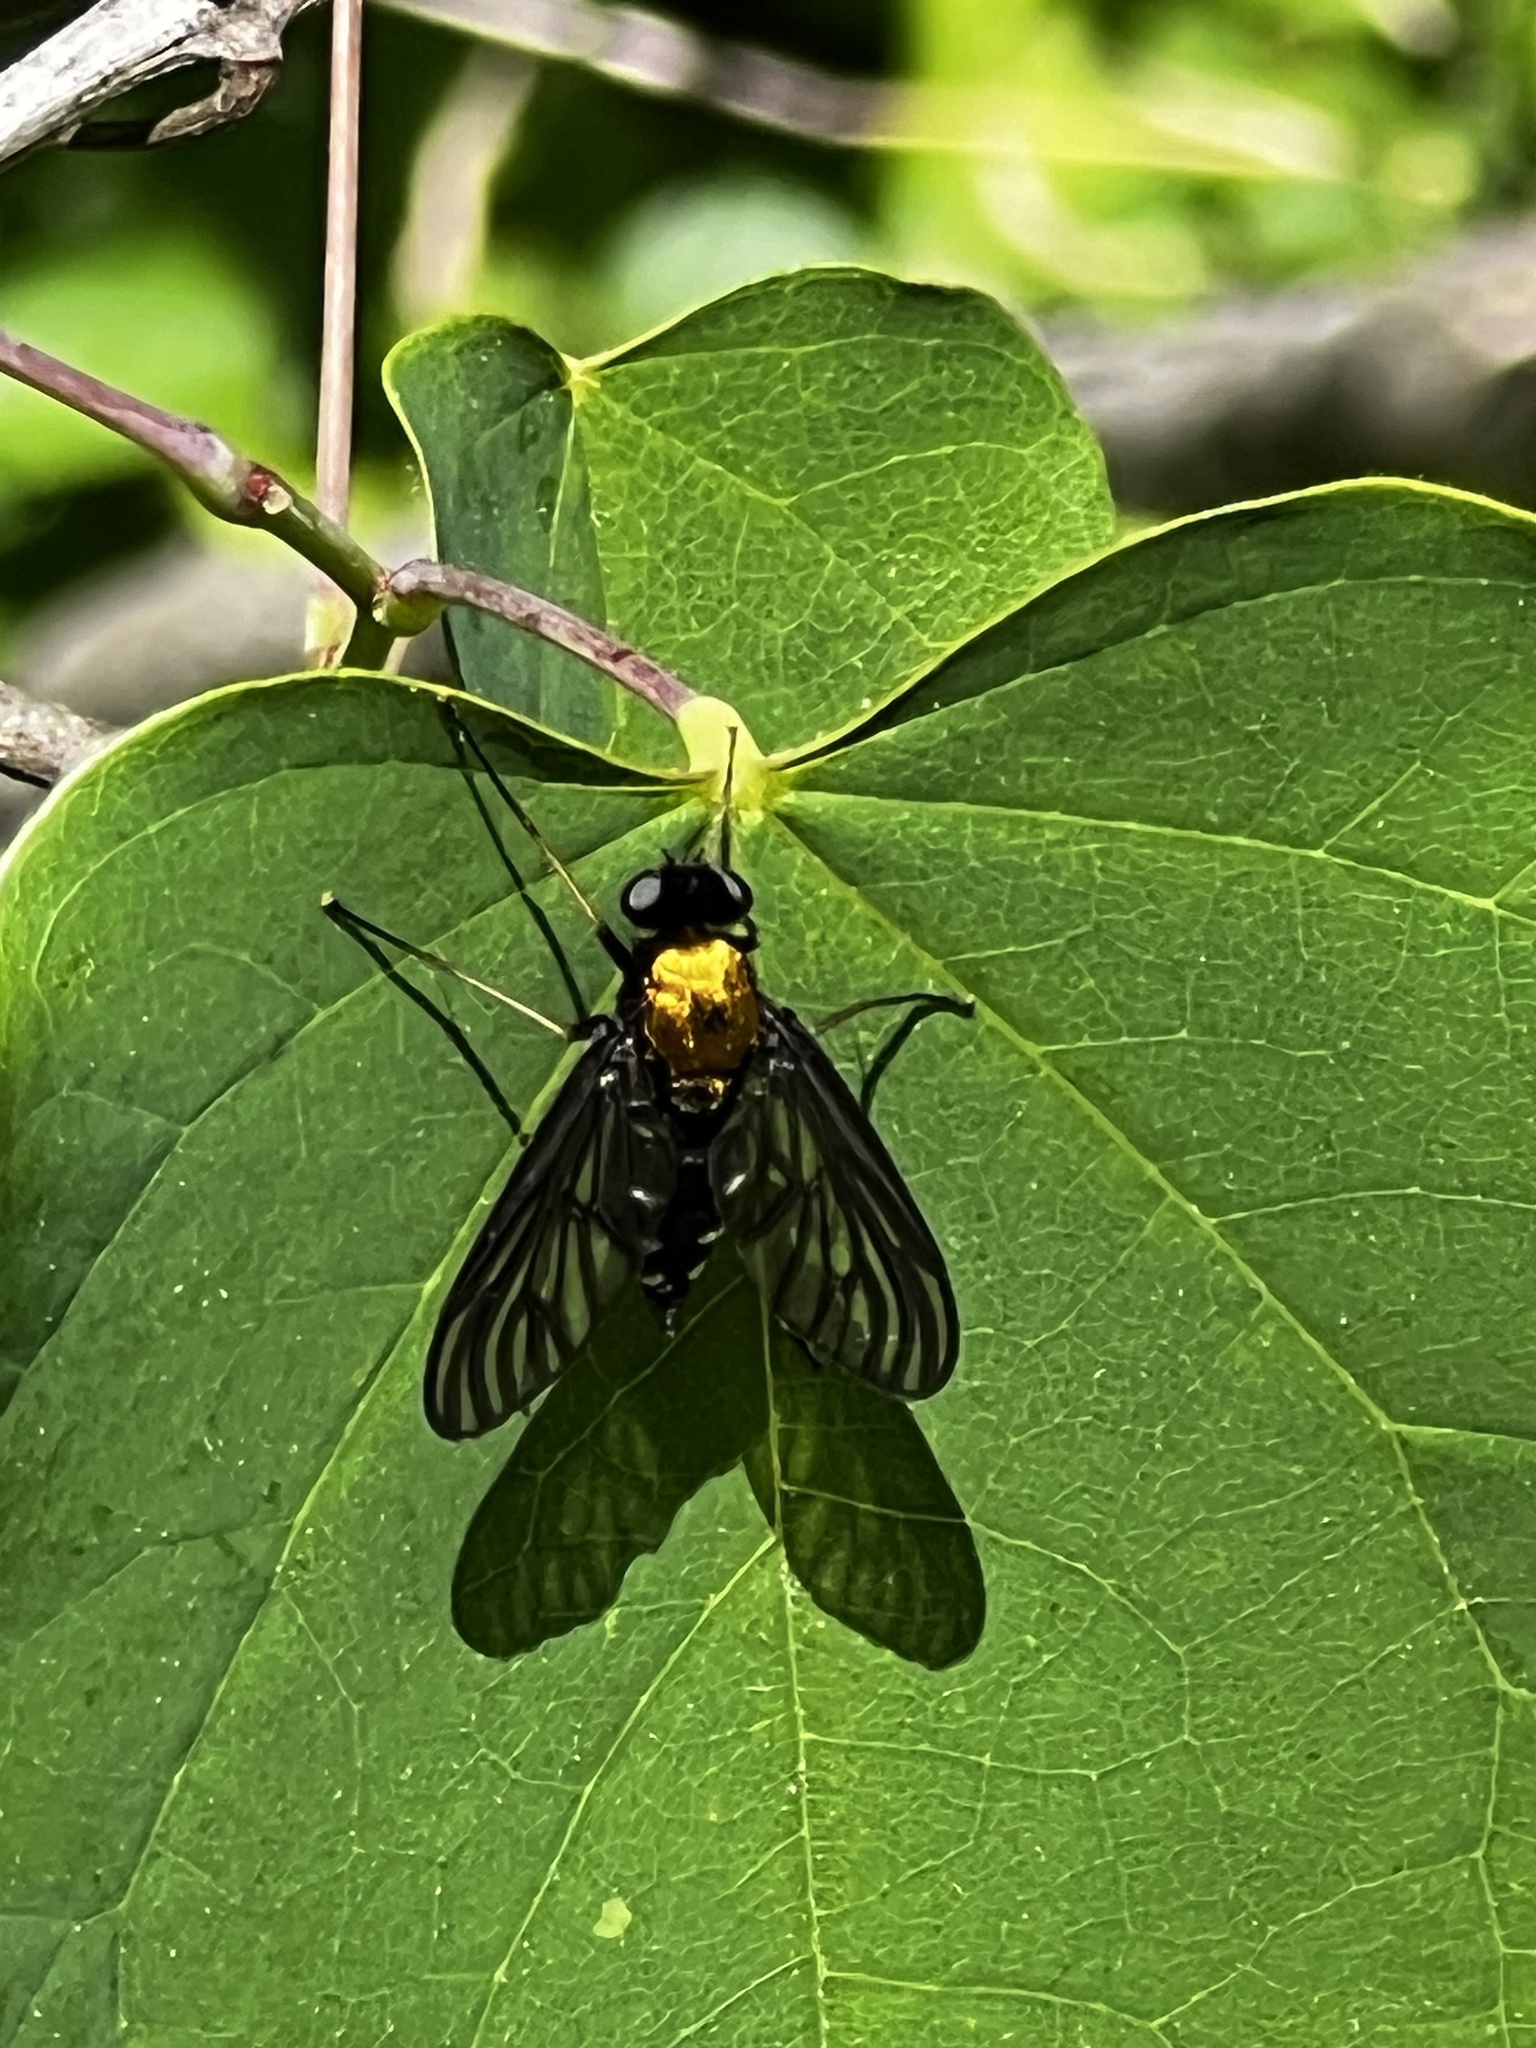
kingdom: Animalia
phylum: Arthropoda
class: Insecta
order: Diptera
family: Rhagionidae
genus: Chrysopilus
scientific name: Chrysopilus thoracicus
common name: Golden-backed snipe fly
